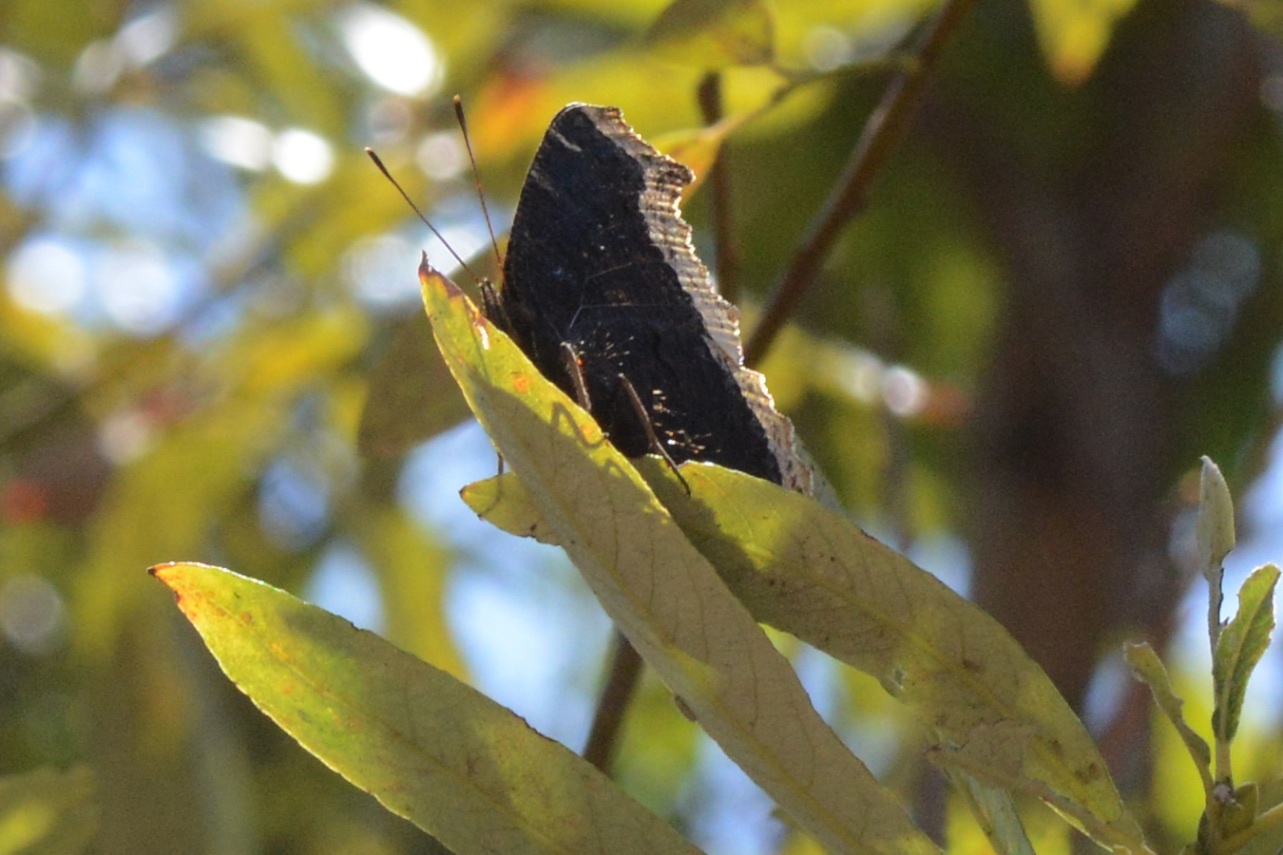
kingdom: Animalia
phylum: Arthropoda
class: Insecta
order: Lepidoptera
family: Nymphalidae
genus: Nymphalis
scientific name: Nymphalis antiopa
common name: Camberwell beauty
